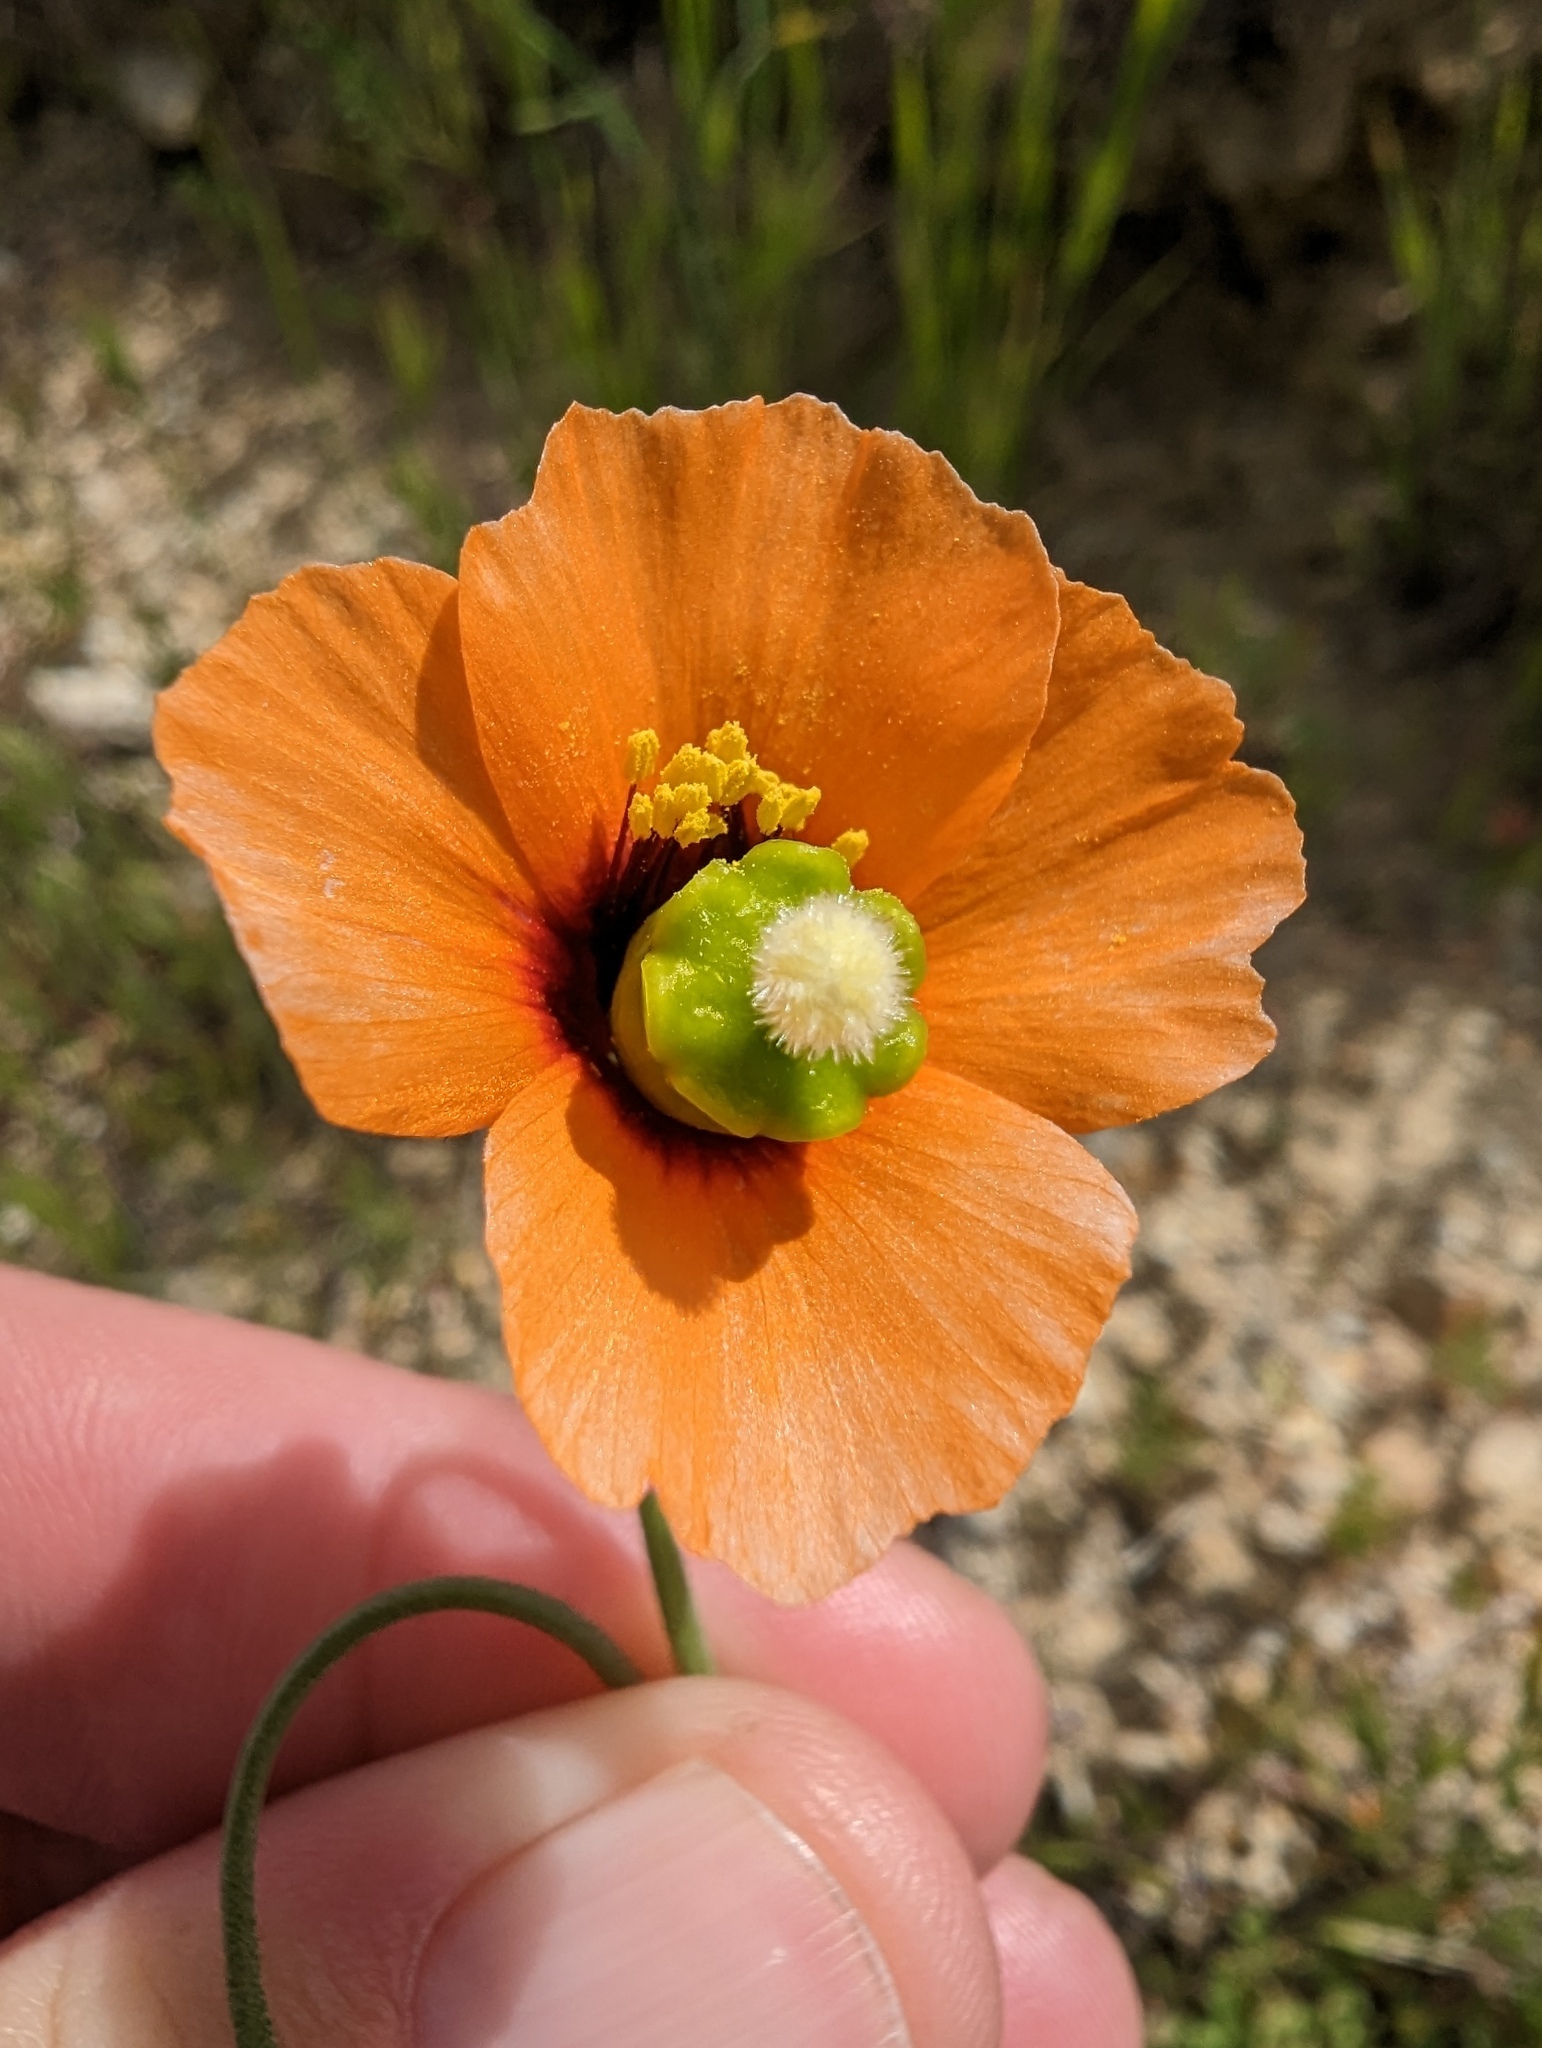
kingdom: Plantae
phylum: Tracheophyta
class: Magnoliopsida
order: Ranunculales
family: Papaveraceae
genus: Stylomecon
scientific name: Stylomecon heterophylla
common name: Flaming-poppy
